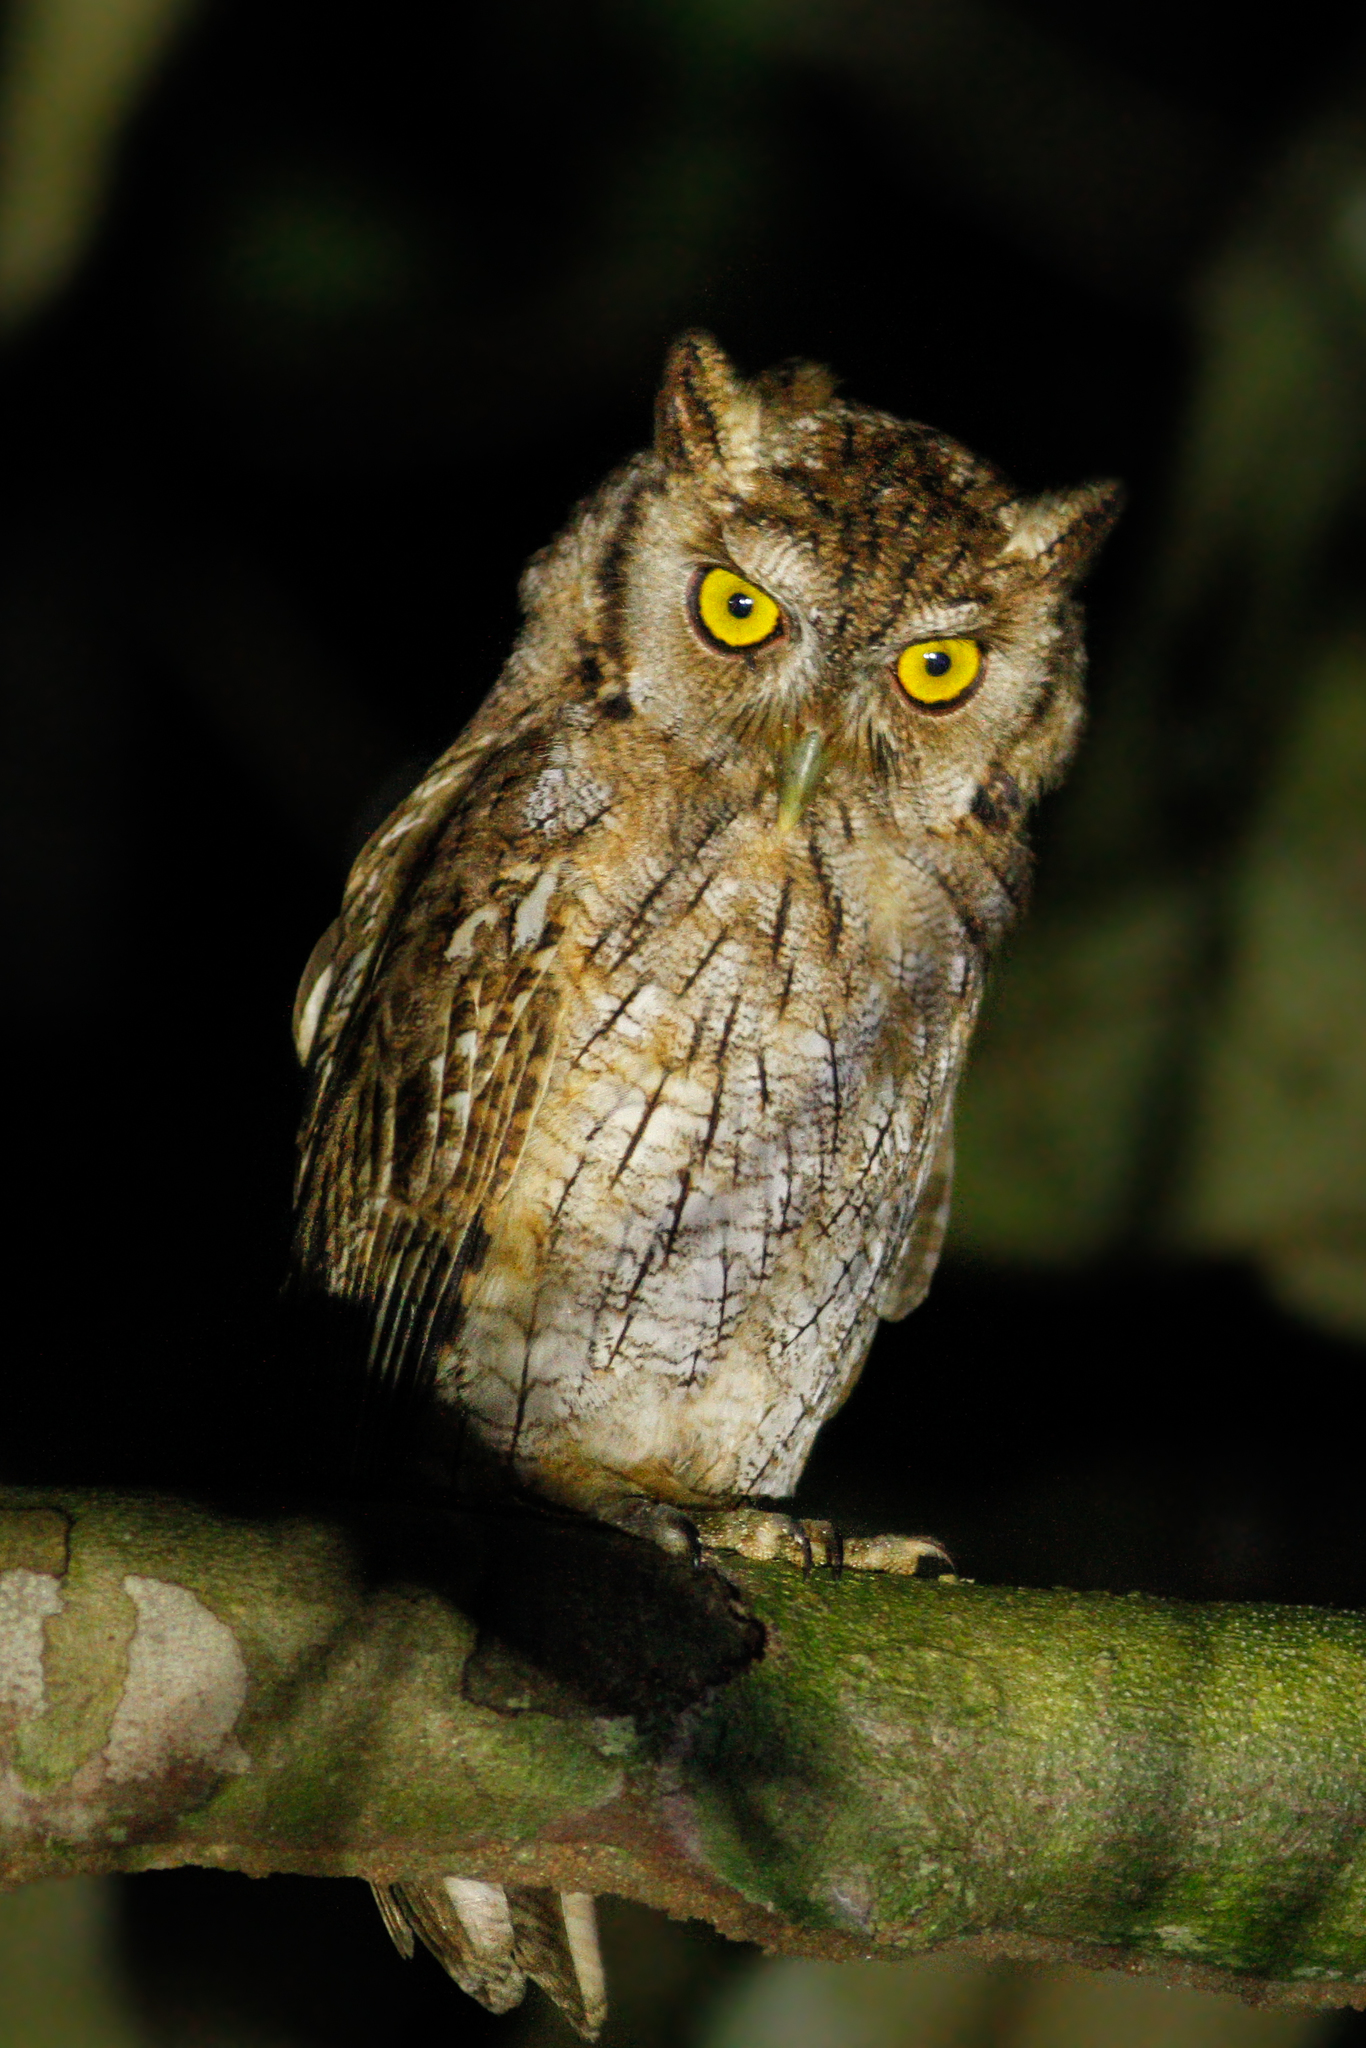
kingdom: Animalia
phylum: Chordata
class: Aves
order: Strigiformes
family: Strigidae
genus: Megascops
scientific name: Megascops choliba
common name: Tropical screech-owl
